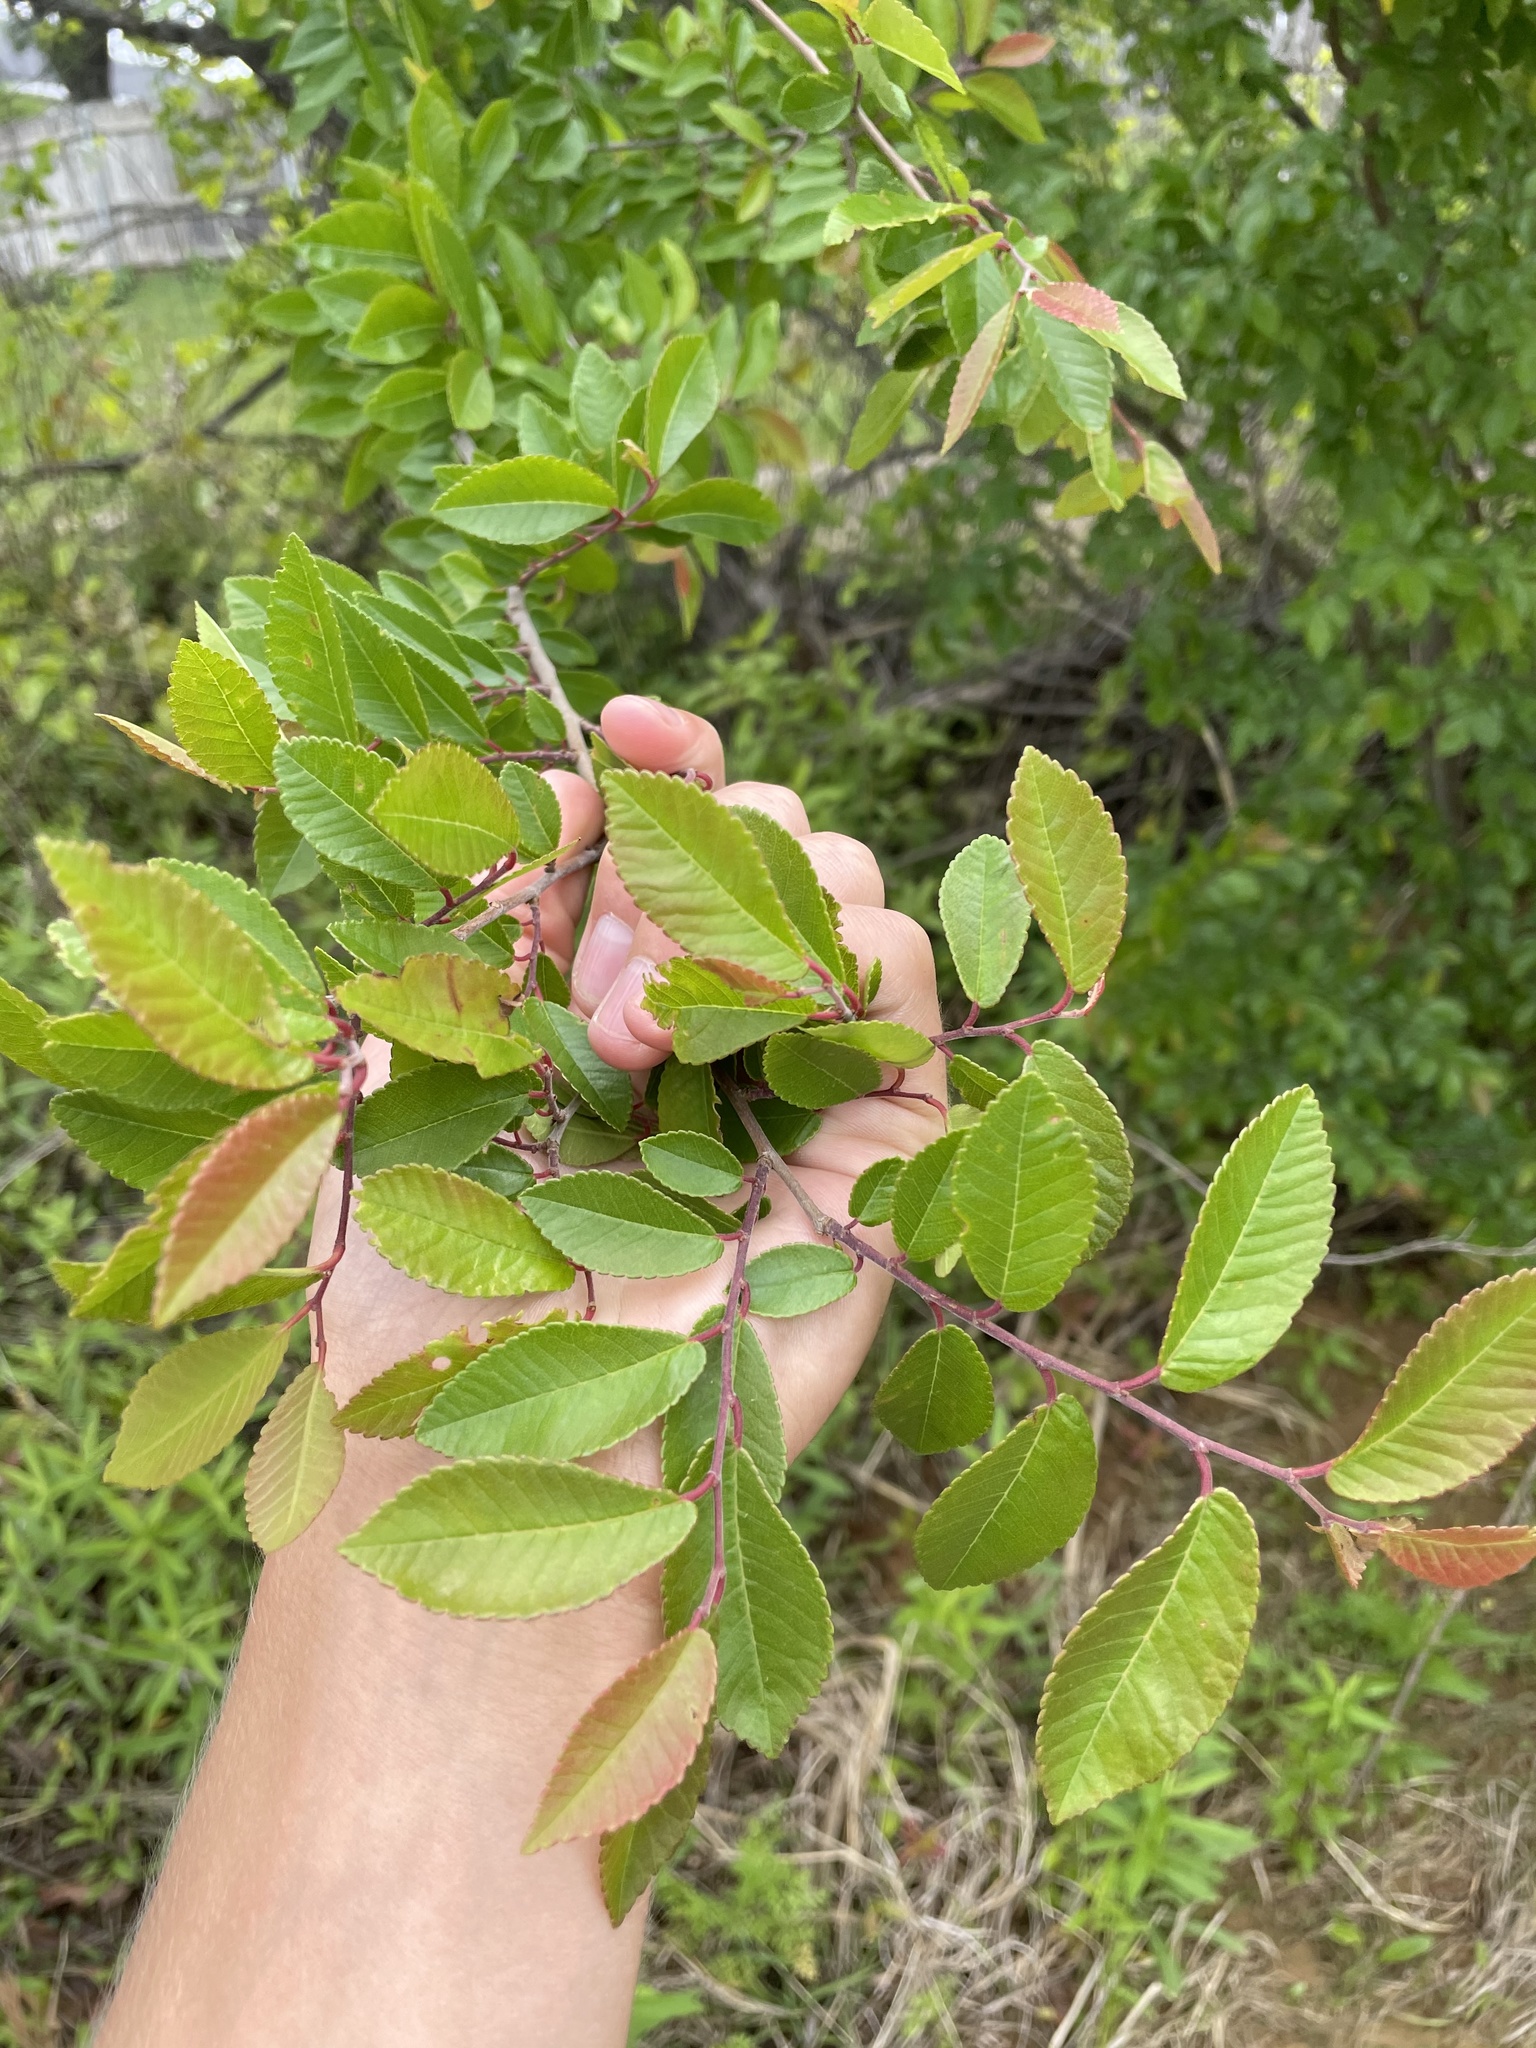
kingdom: Plantae
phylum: Tracheophyta
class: Magnoliopsida
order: Rosales
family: Ulmaceae
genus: Ulmus
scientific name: Ulmus crassifolia
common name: Basket elm
